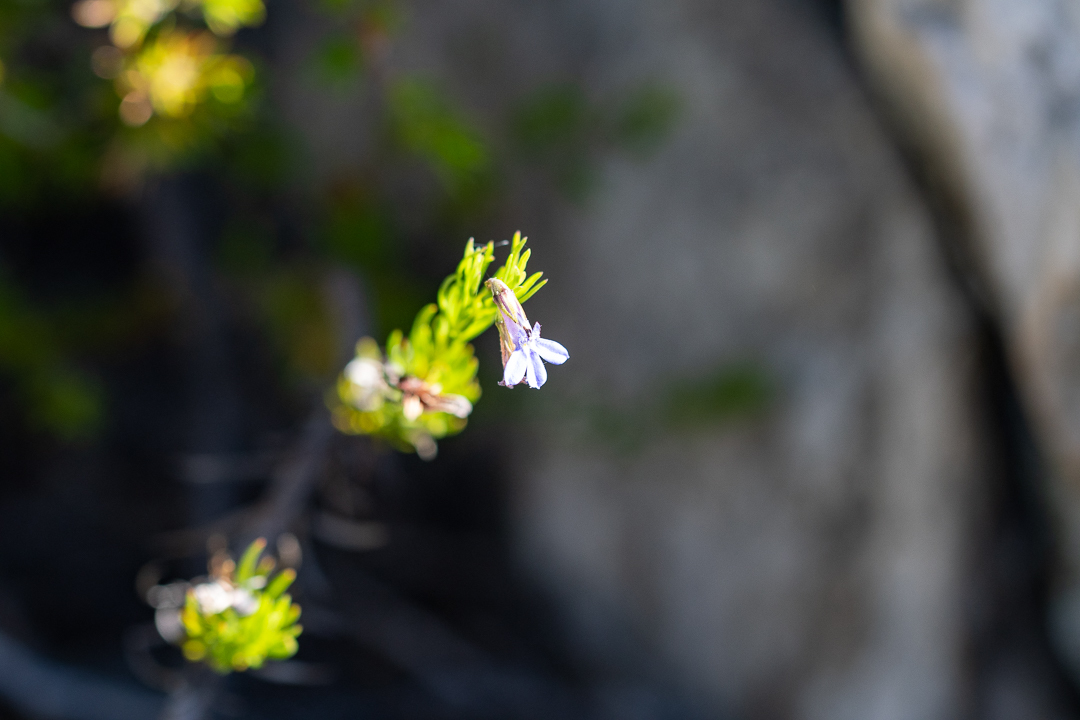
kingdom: Plantae
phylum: Tracheophyta
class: Magnoliopsida
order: Asterales
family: Campanulaceae
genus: Lobelia
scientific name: Lobelia pinifolia
